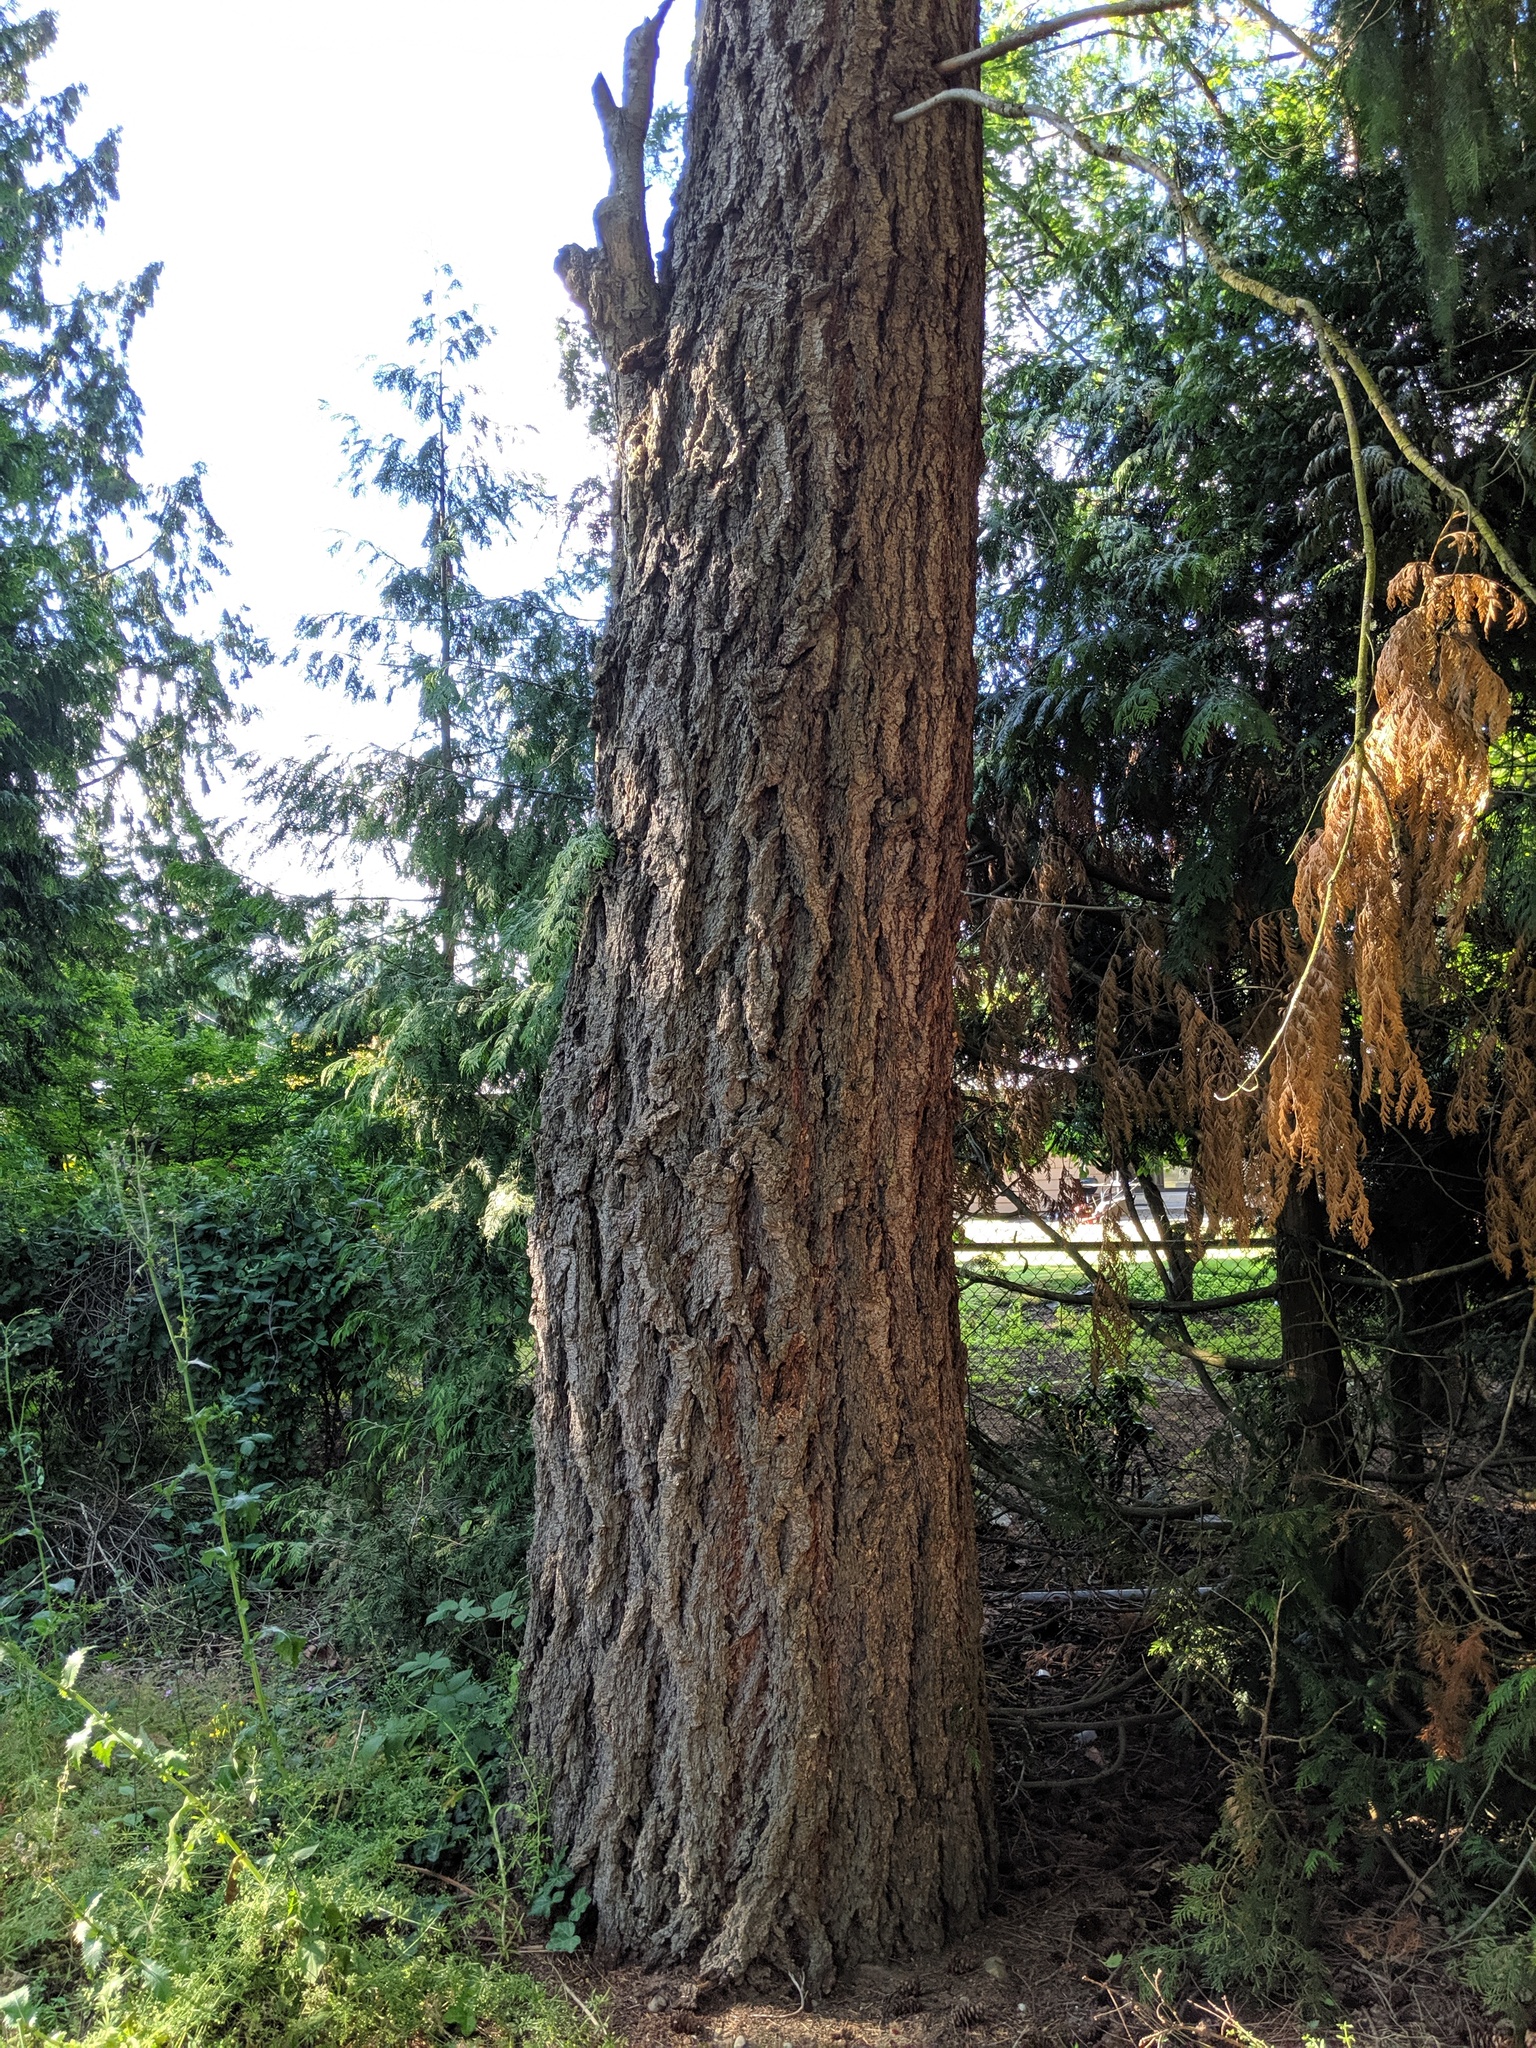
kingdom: Plantae
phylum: Tracheophyta
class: Pinopsida
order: Pinales
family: Pinaceae
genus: Pseudotsuga
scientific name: Pseudotsuga menziesii
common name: Douglas fir
